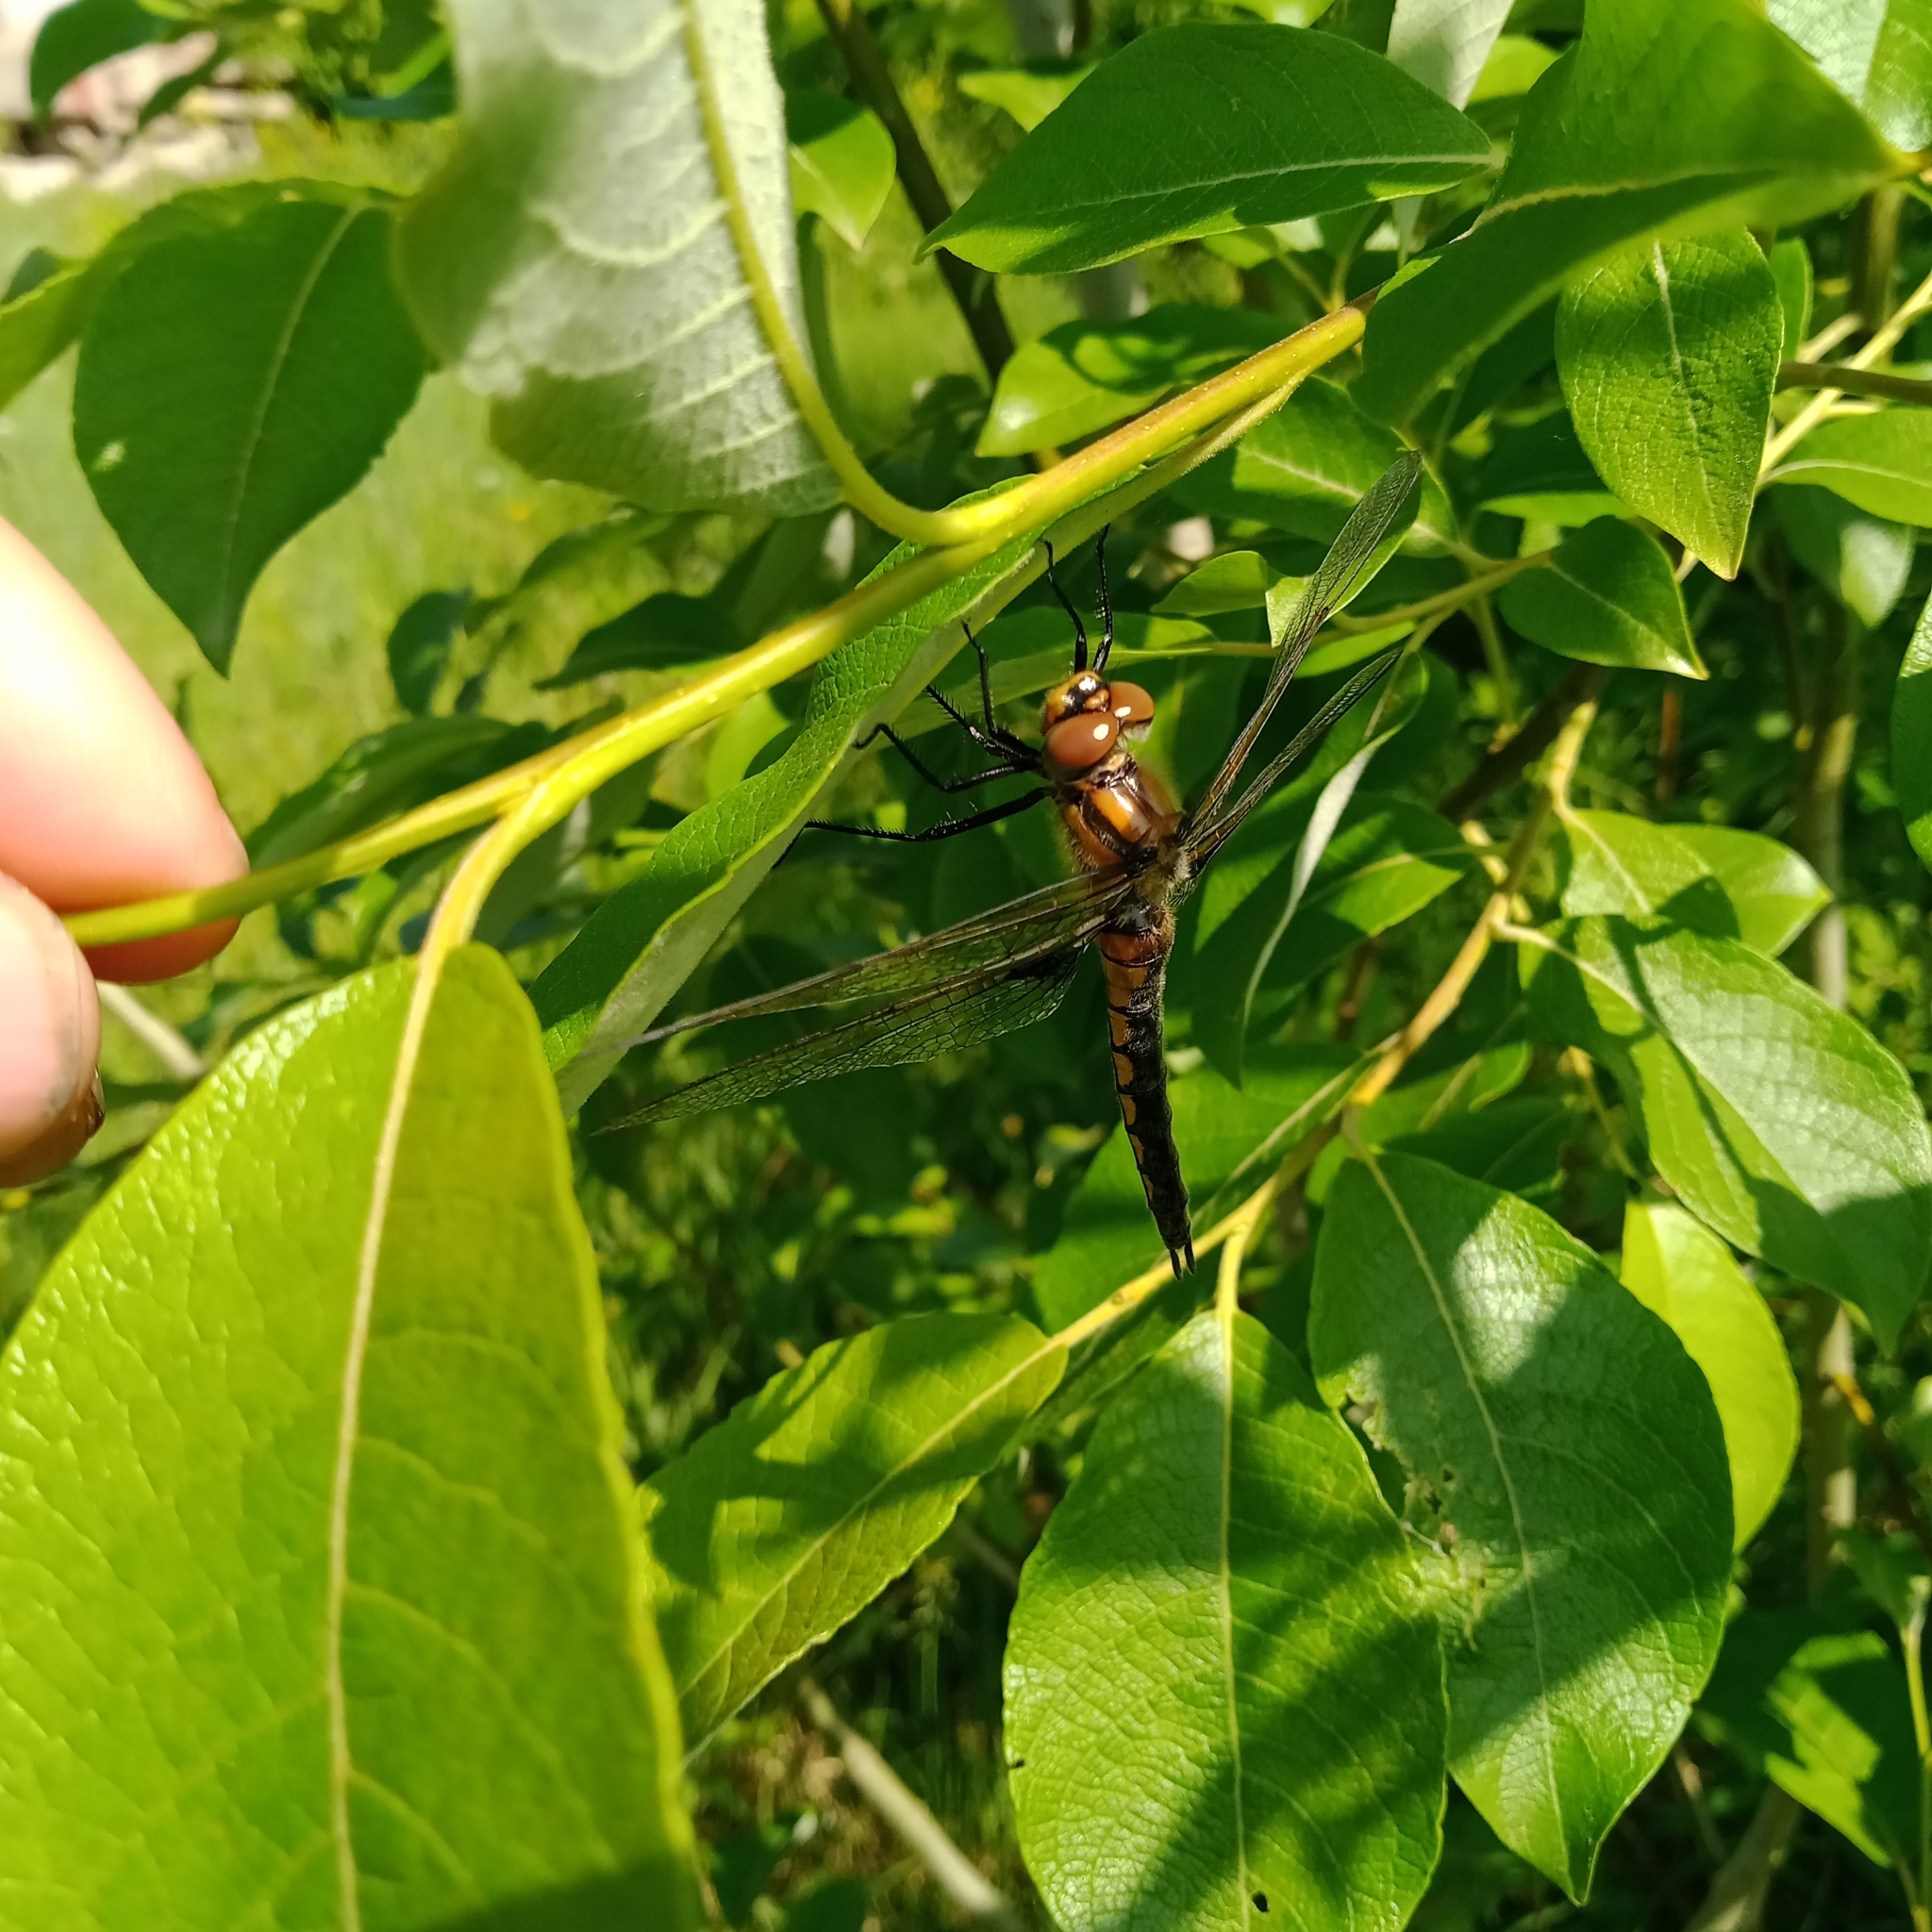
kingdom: Animalia
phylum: Arthropoda
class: Insecta
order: Odonata
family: Corduliidae
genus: Epitheca
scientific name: Epitheca bimaculata
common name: Eurasian baskettail
